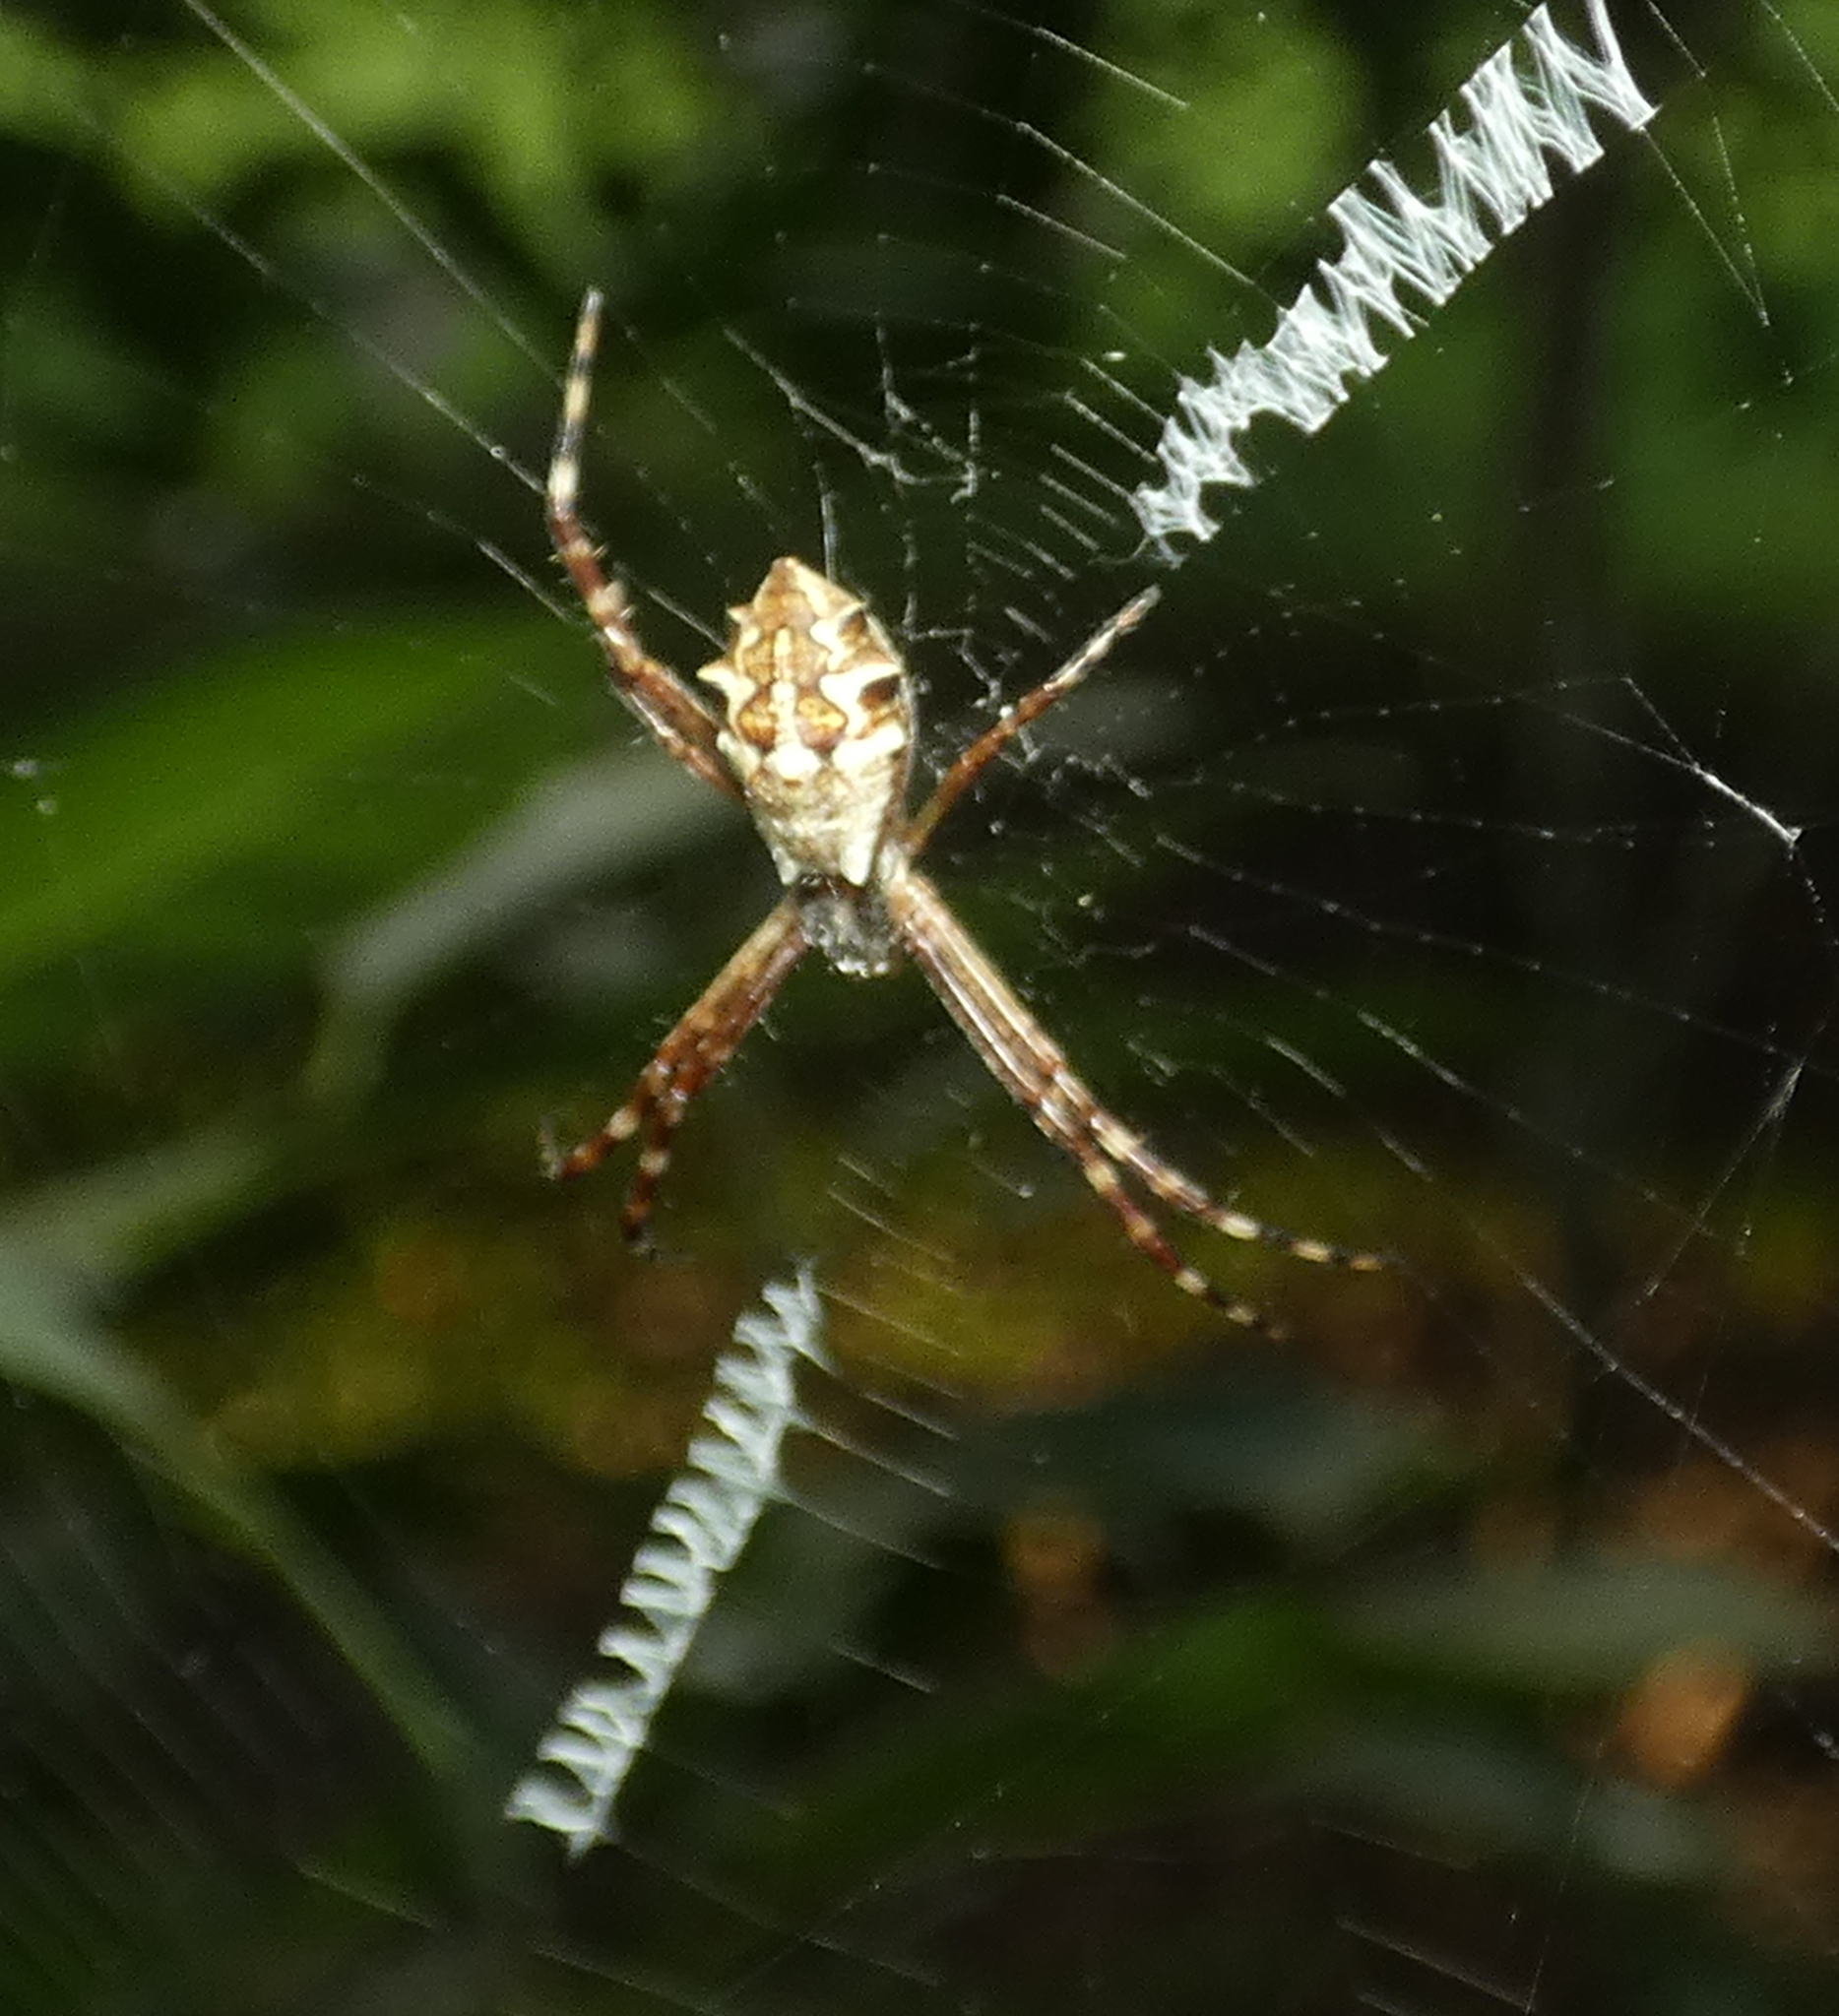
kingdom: Animalia
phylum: Arthropoda
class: Arachnida
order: Araneae
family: Araneidae
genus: Argiope
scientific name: Argiope argentata
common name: Orb weavers
